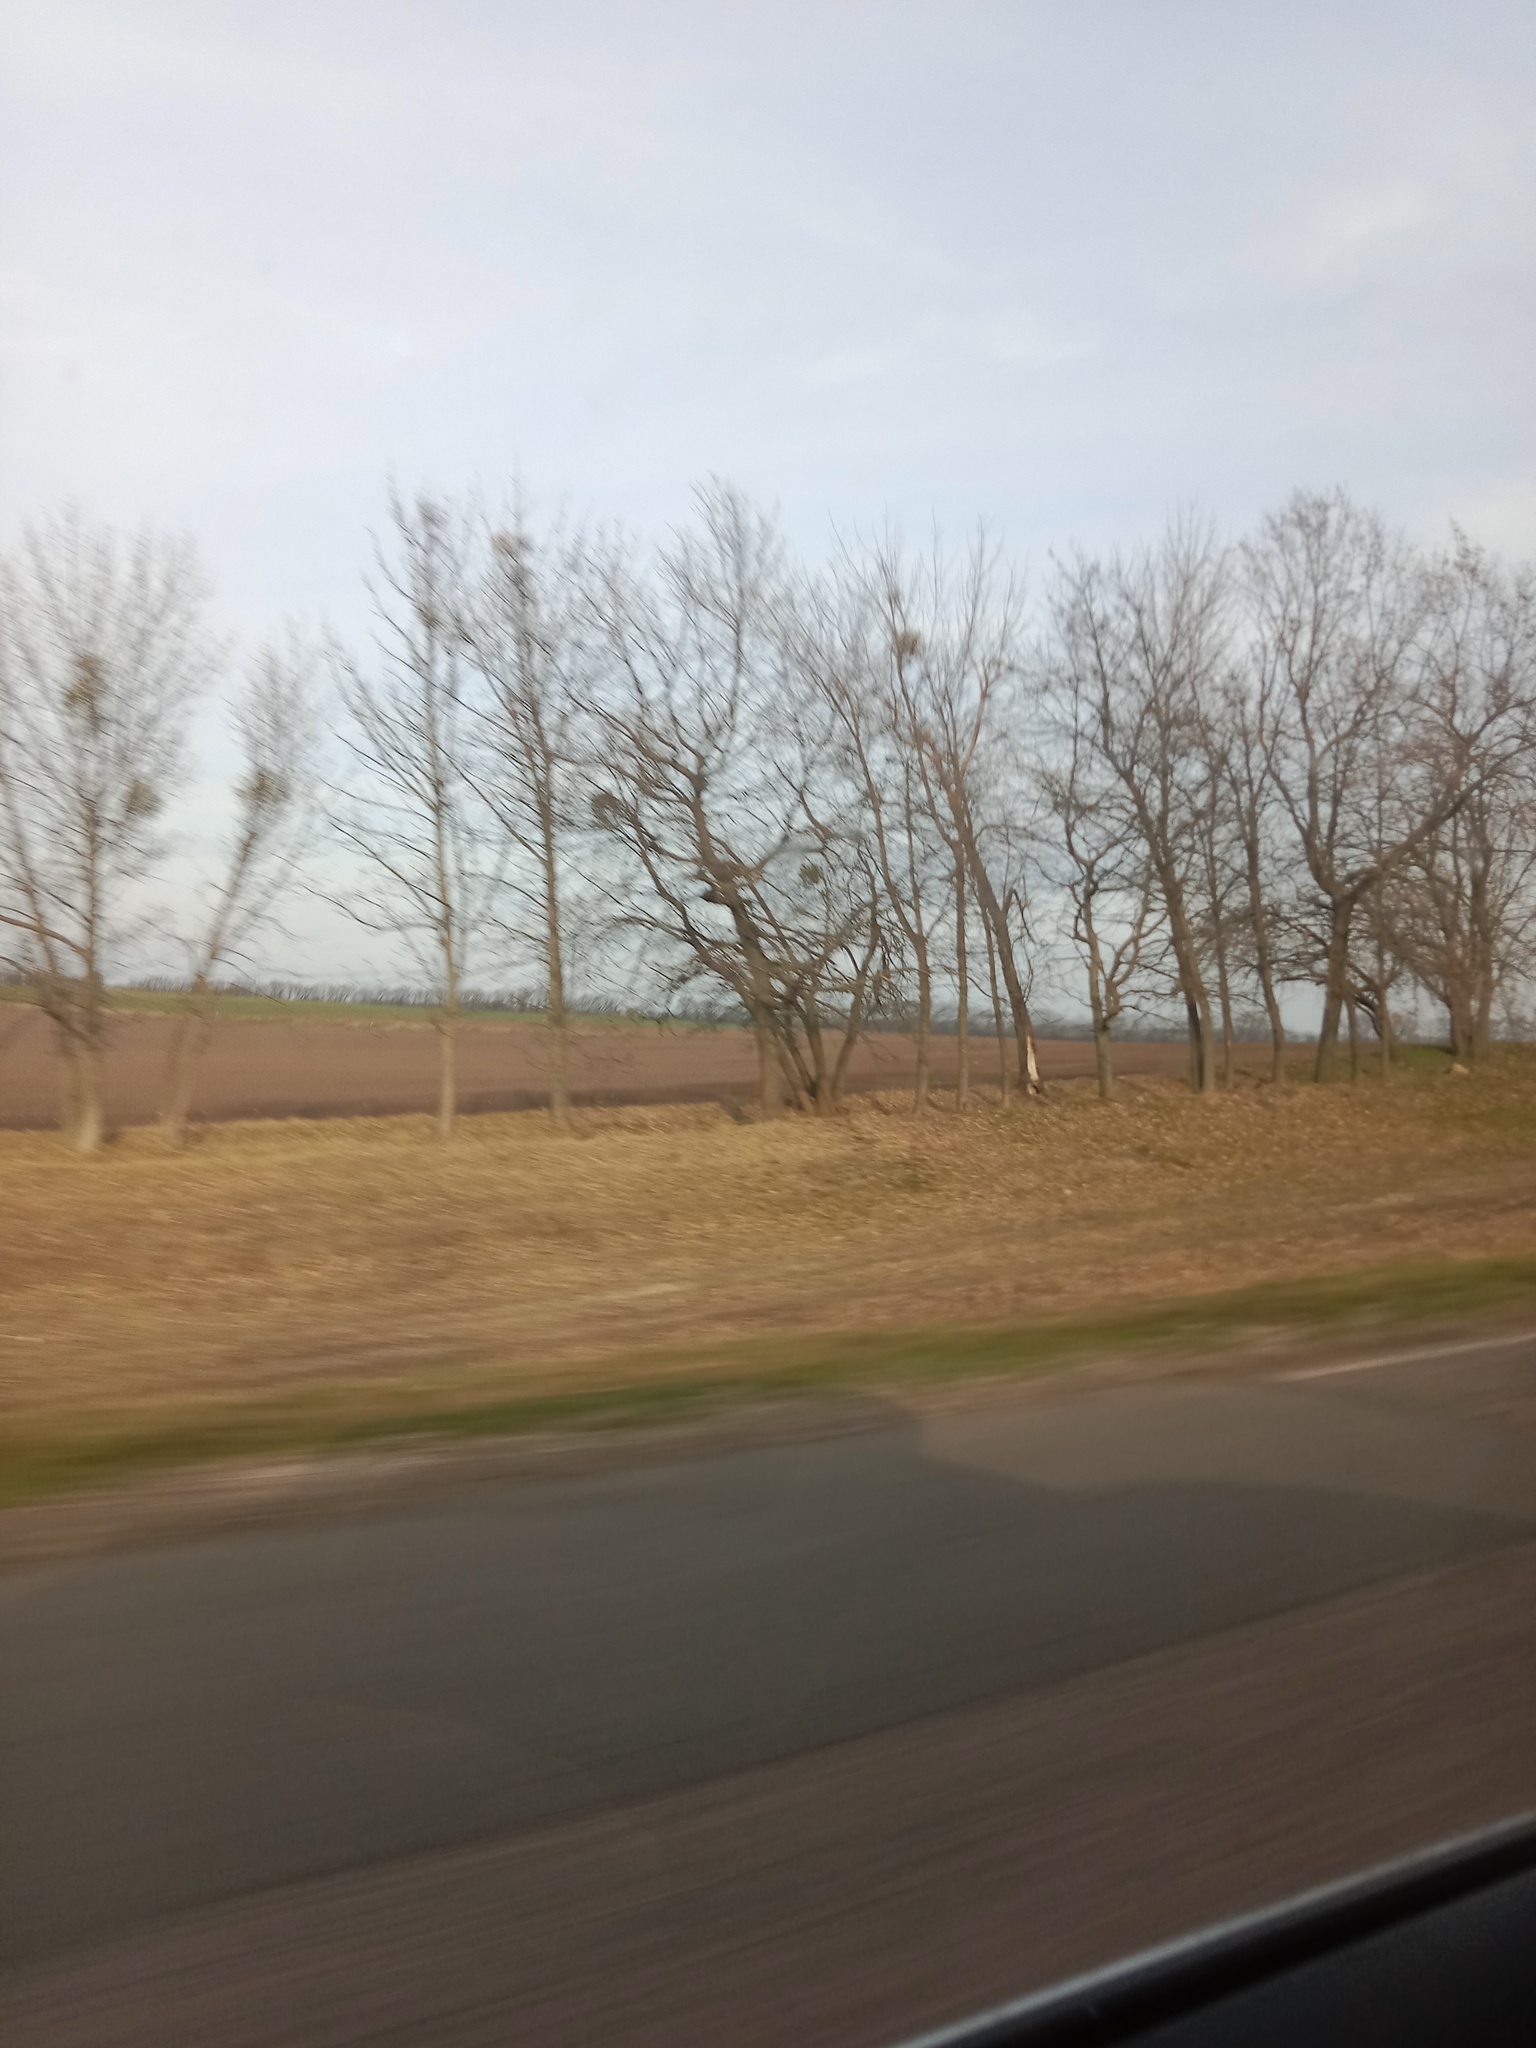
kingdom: Plantae
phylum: Tracheophyta
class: Magnoliopsida
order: Santalales
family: Viscaceae
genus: Viscum
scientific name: Viscum album
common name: Mistletoe
